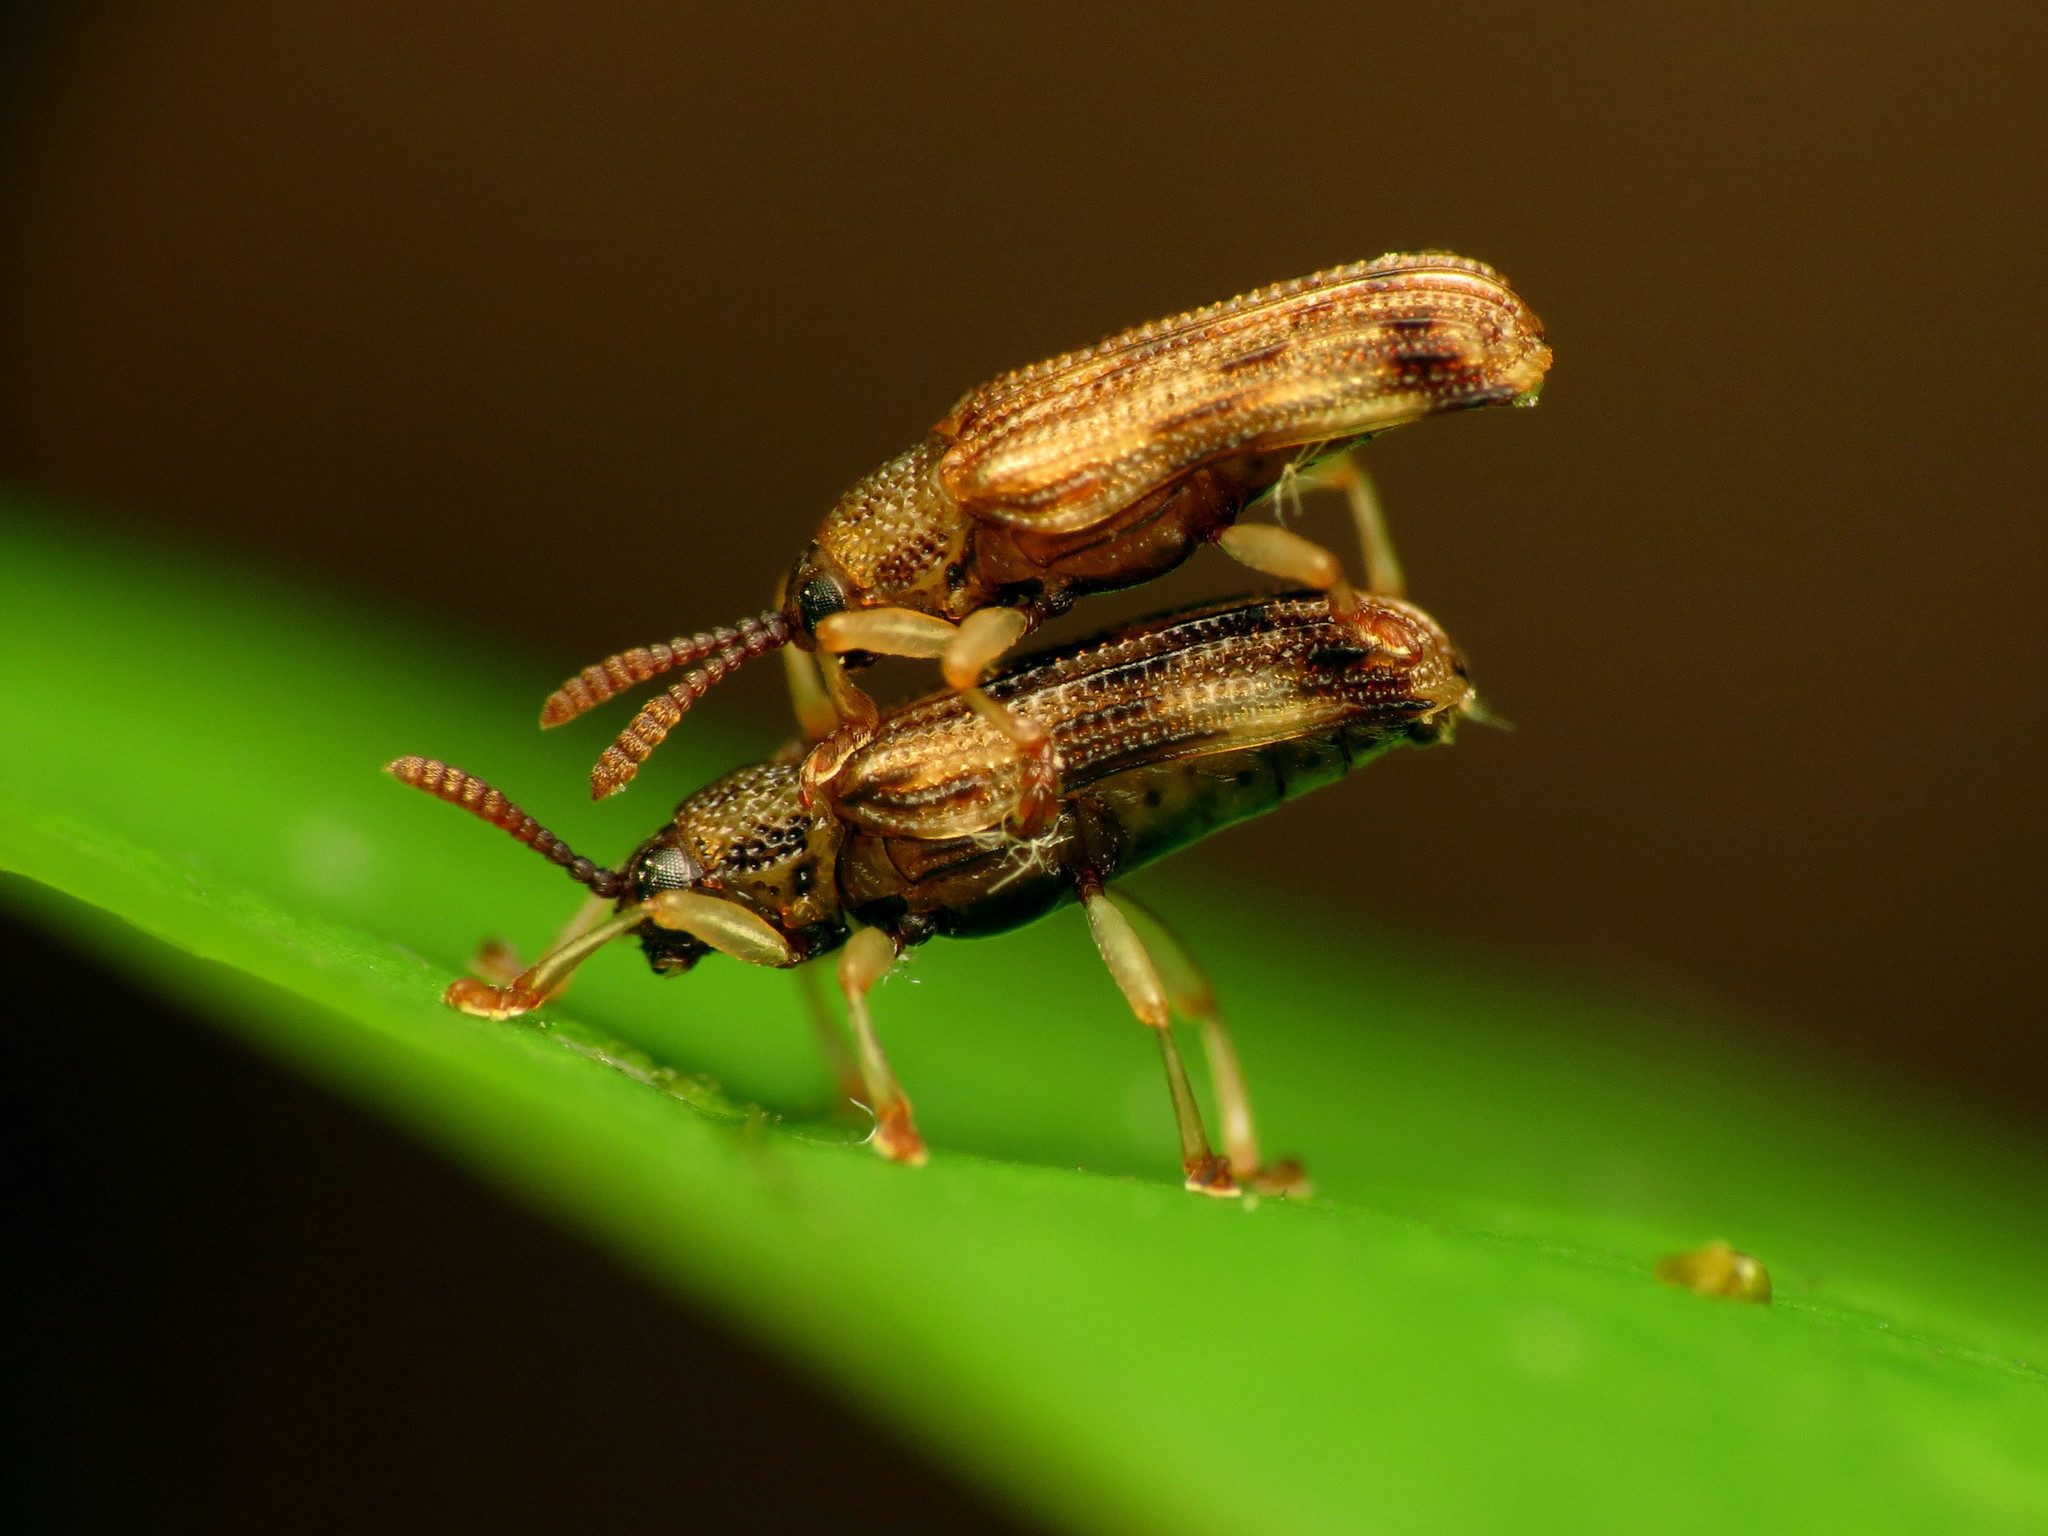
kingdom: Animalia
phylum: Arthropoda
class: Insecta
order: Coleoptera
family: Chrysomelidae
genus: Sumitrosis
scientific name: Sumitrosis rosea
